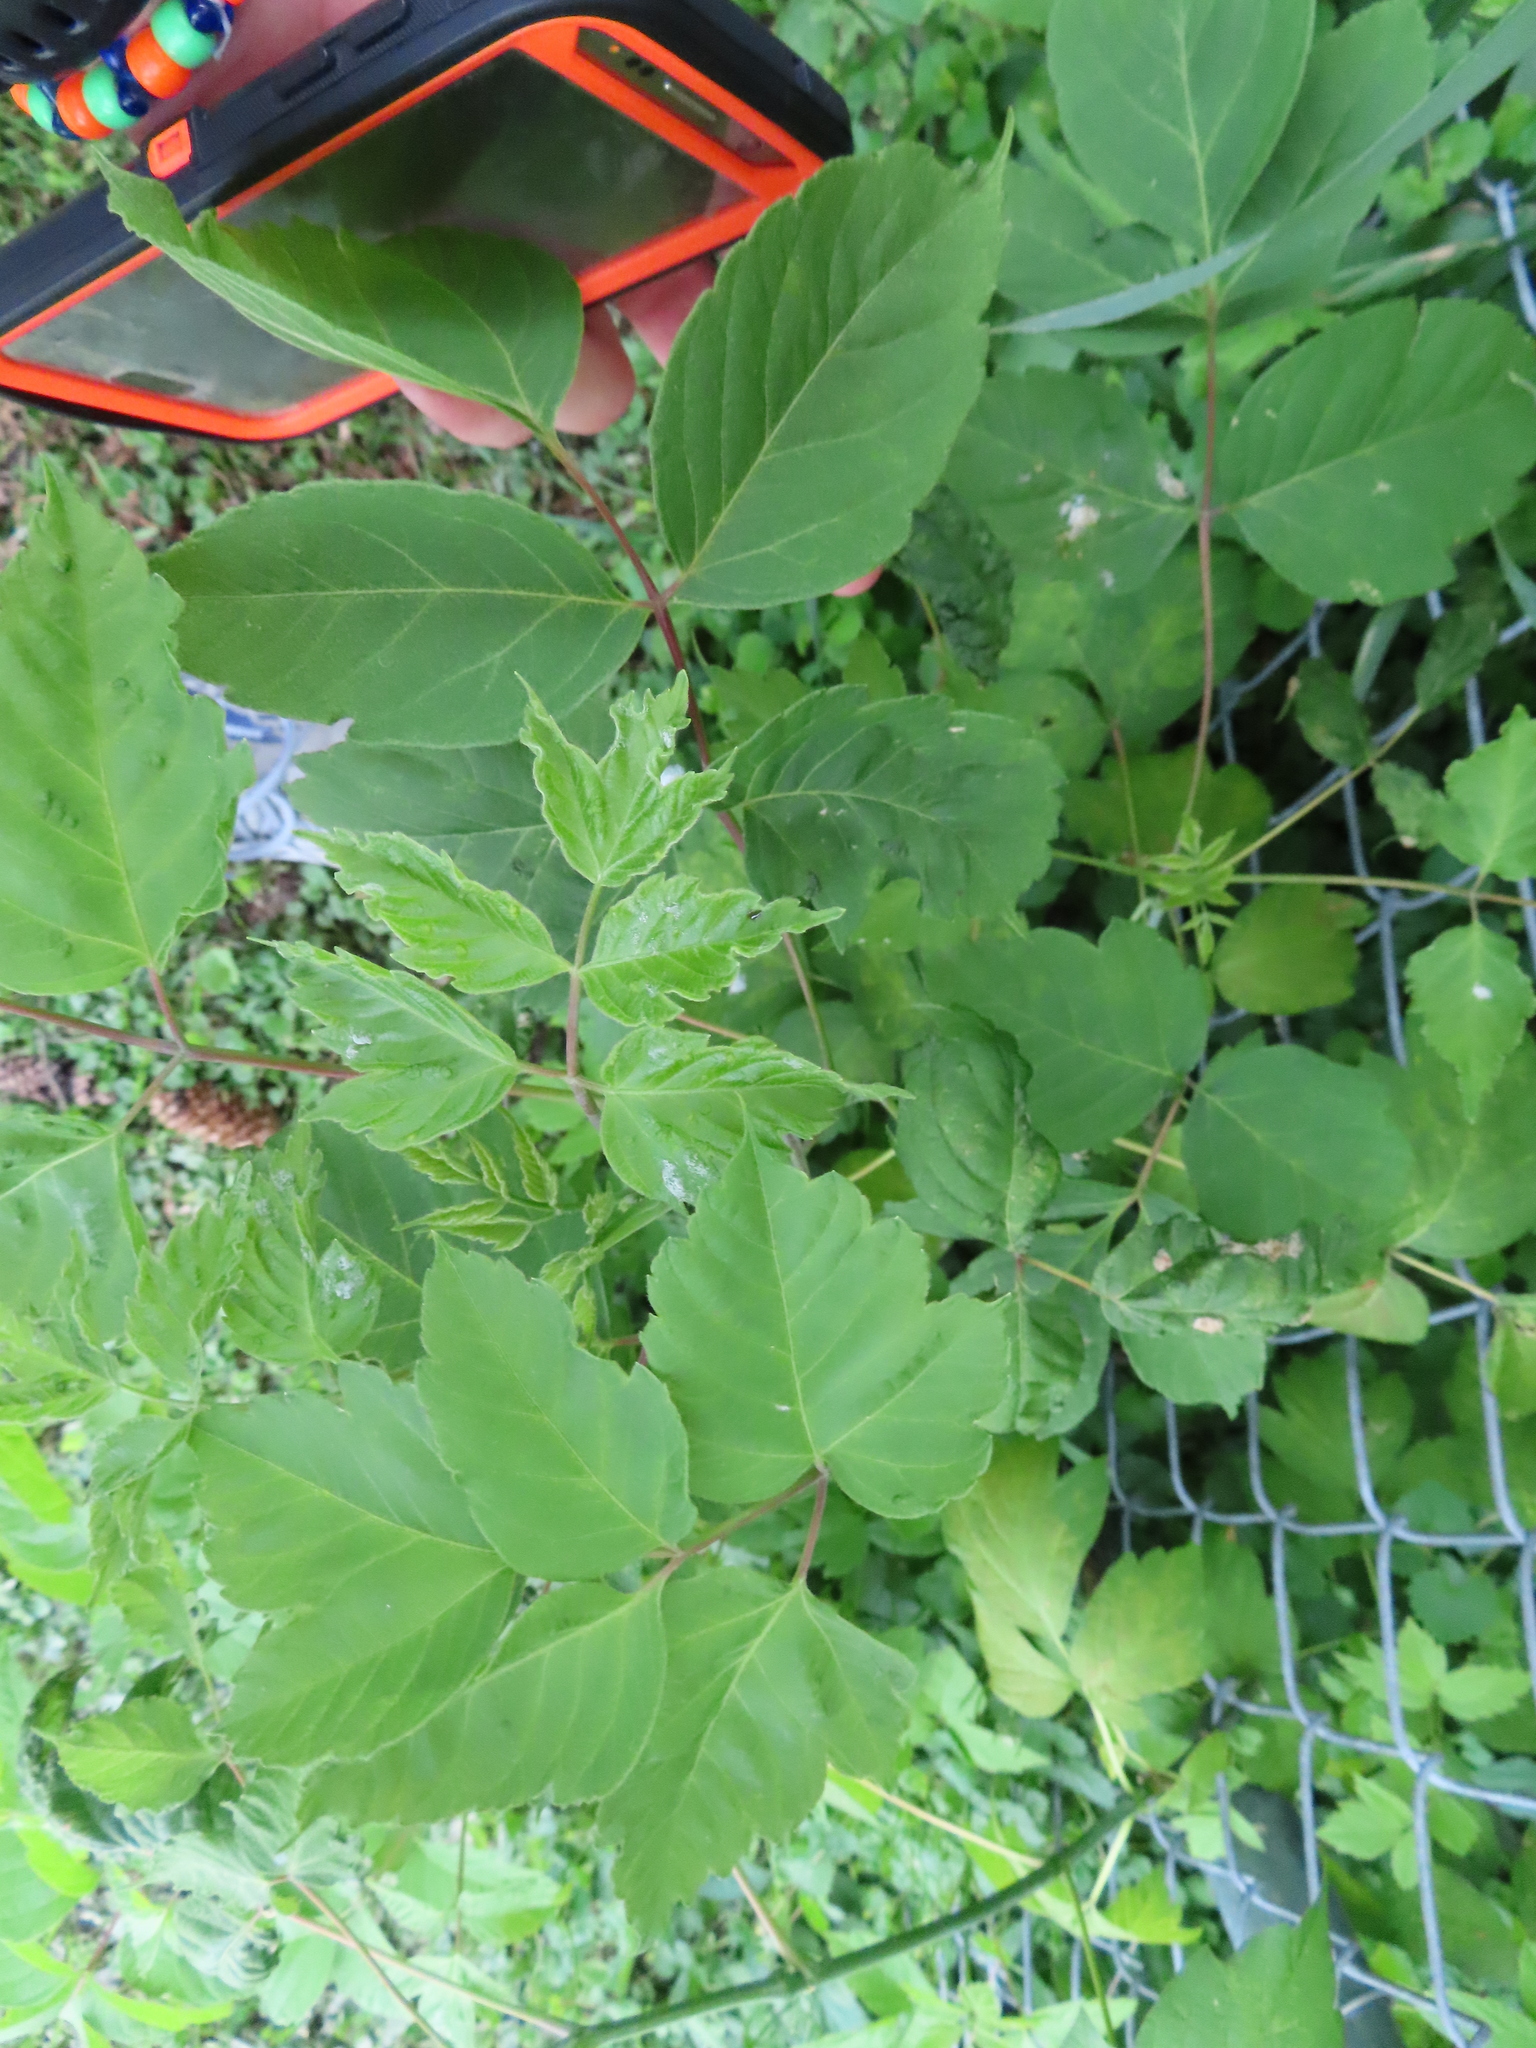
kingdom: Plantae
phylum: Tracheophyta
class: Magnoliopsida
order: Sapindales
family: Sapindaceae
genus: Acer
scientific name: Acer negundo
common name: Ashleaf maple
